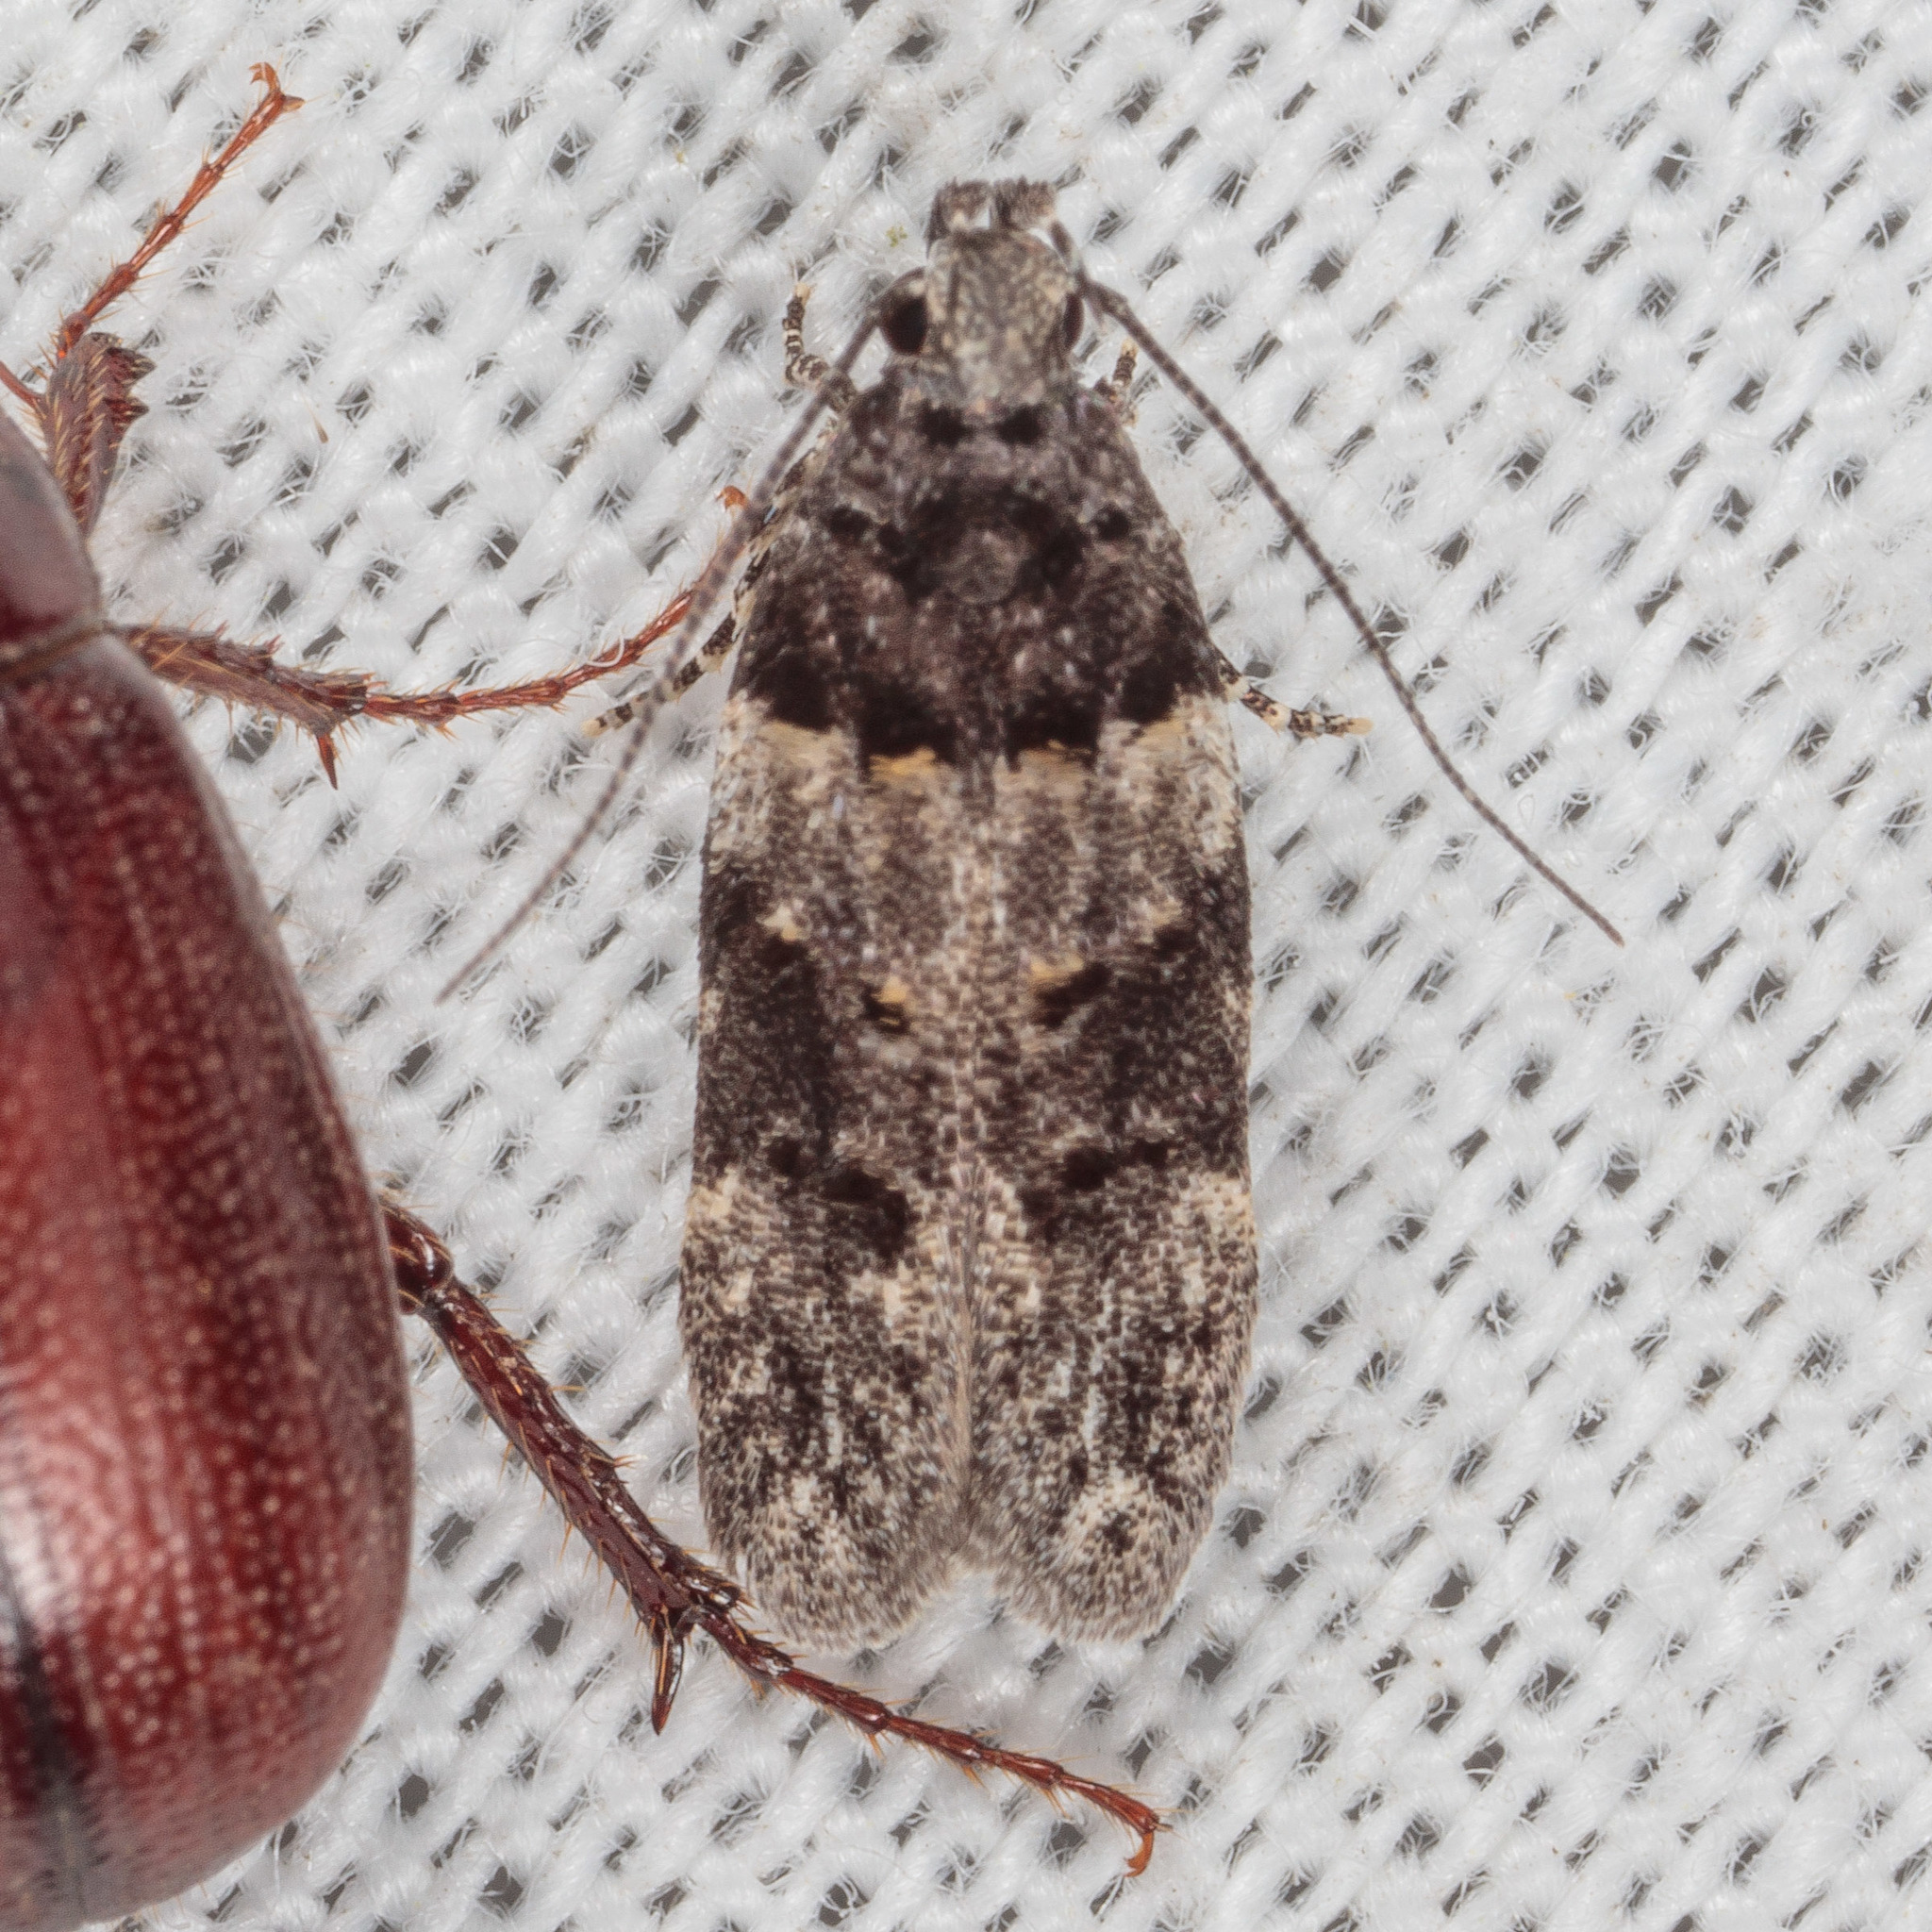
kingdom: Animalia
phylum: Arthropoda
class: Insecta
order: Lepidoptera
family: Gelechiidae
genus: Pubitelphusa
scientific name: Pubitelphusa latifasciella
